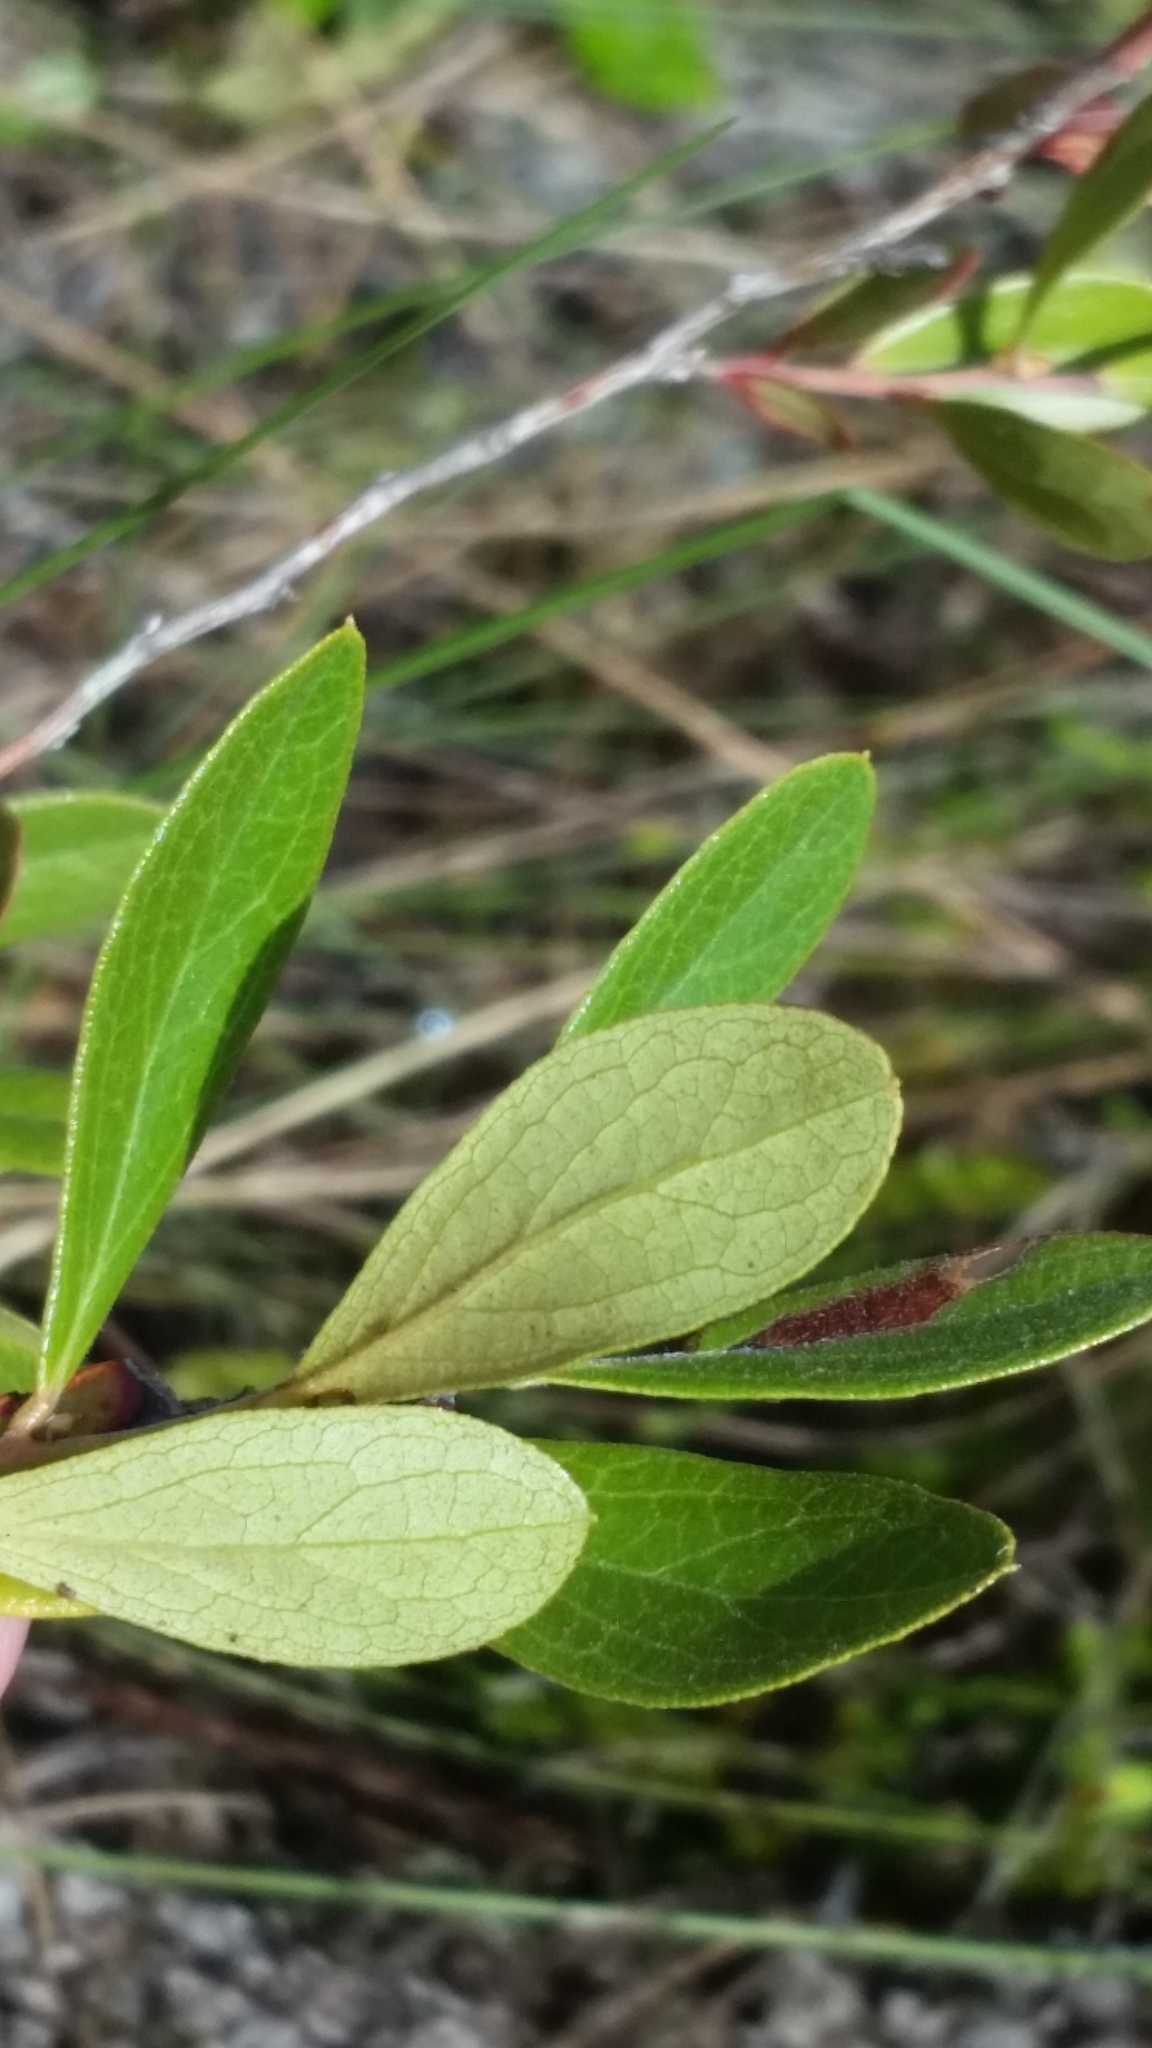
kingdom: Plantae
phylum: Tracheophyta
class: Magnoliopsida
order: Ericales
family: Ericaceae
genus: Gaylussacia
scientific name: Gaylussacia dumosa
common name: Dwarf huckleberry
